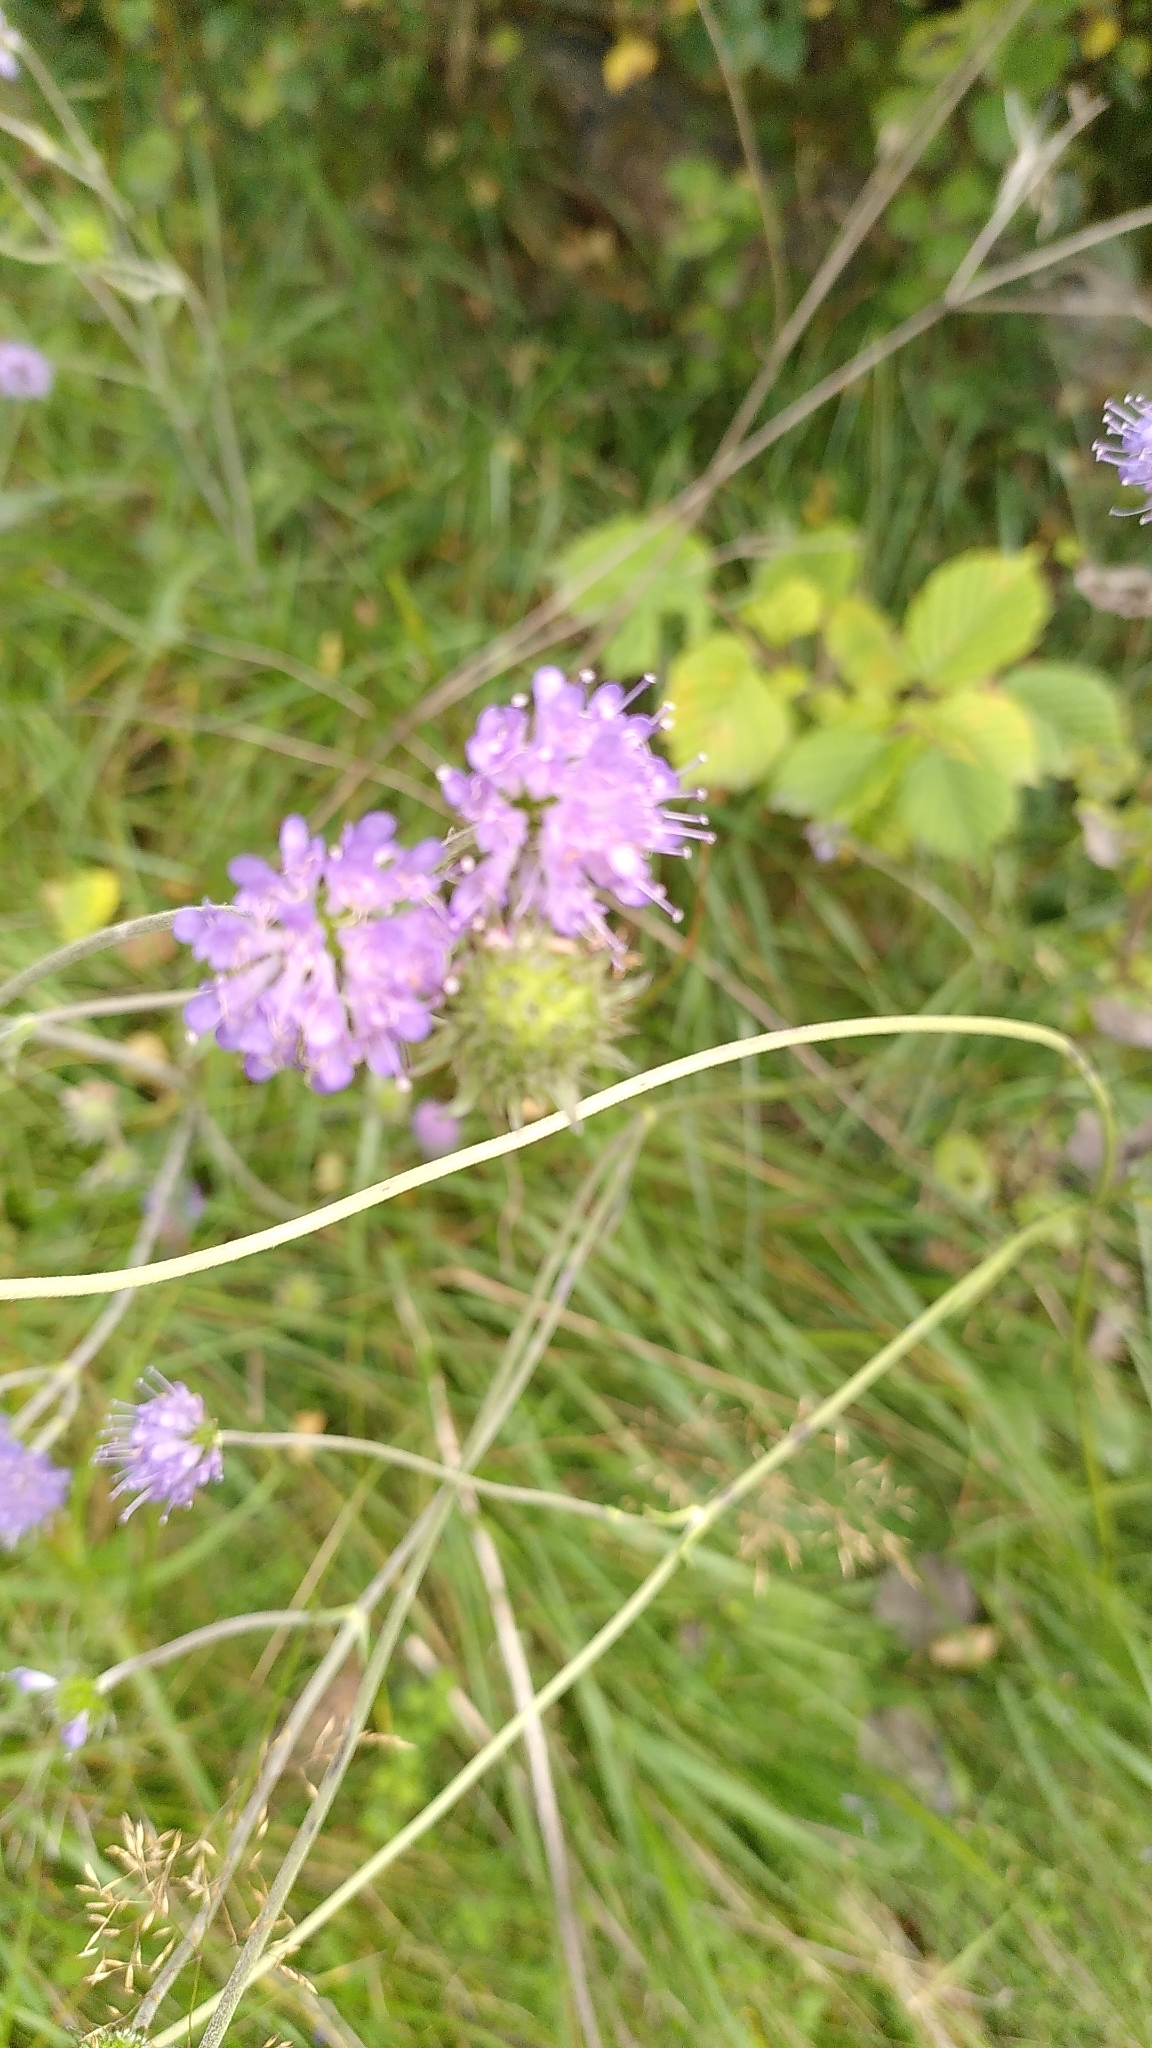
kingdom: Plantae
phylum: Tracheophyta
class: Magnoliopsida
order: Dipsacales
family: Caprifoliaceae
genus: Succisa
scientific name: Succisa pratensis
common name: Devil's-bit
